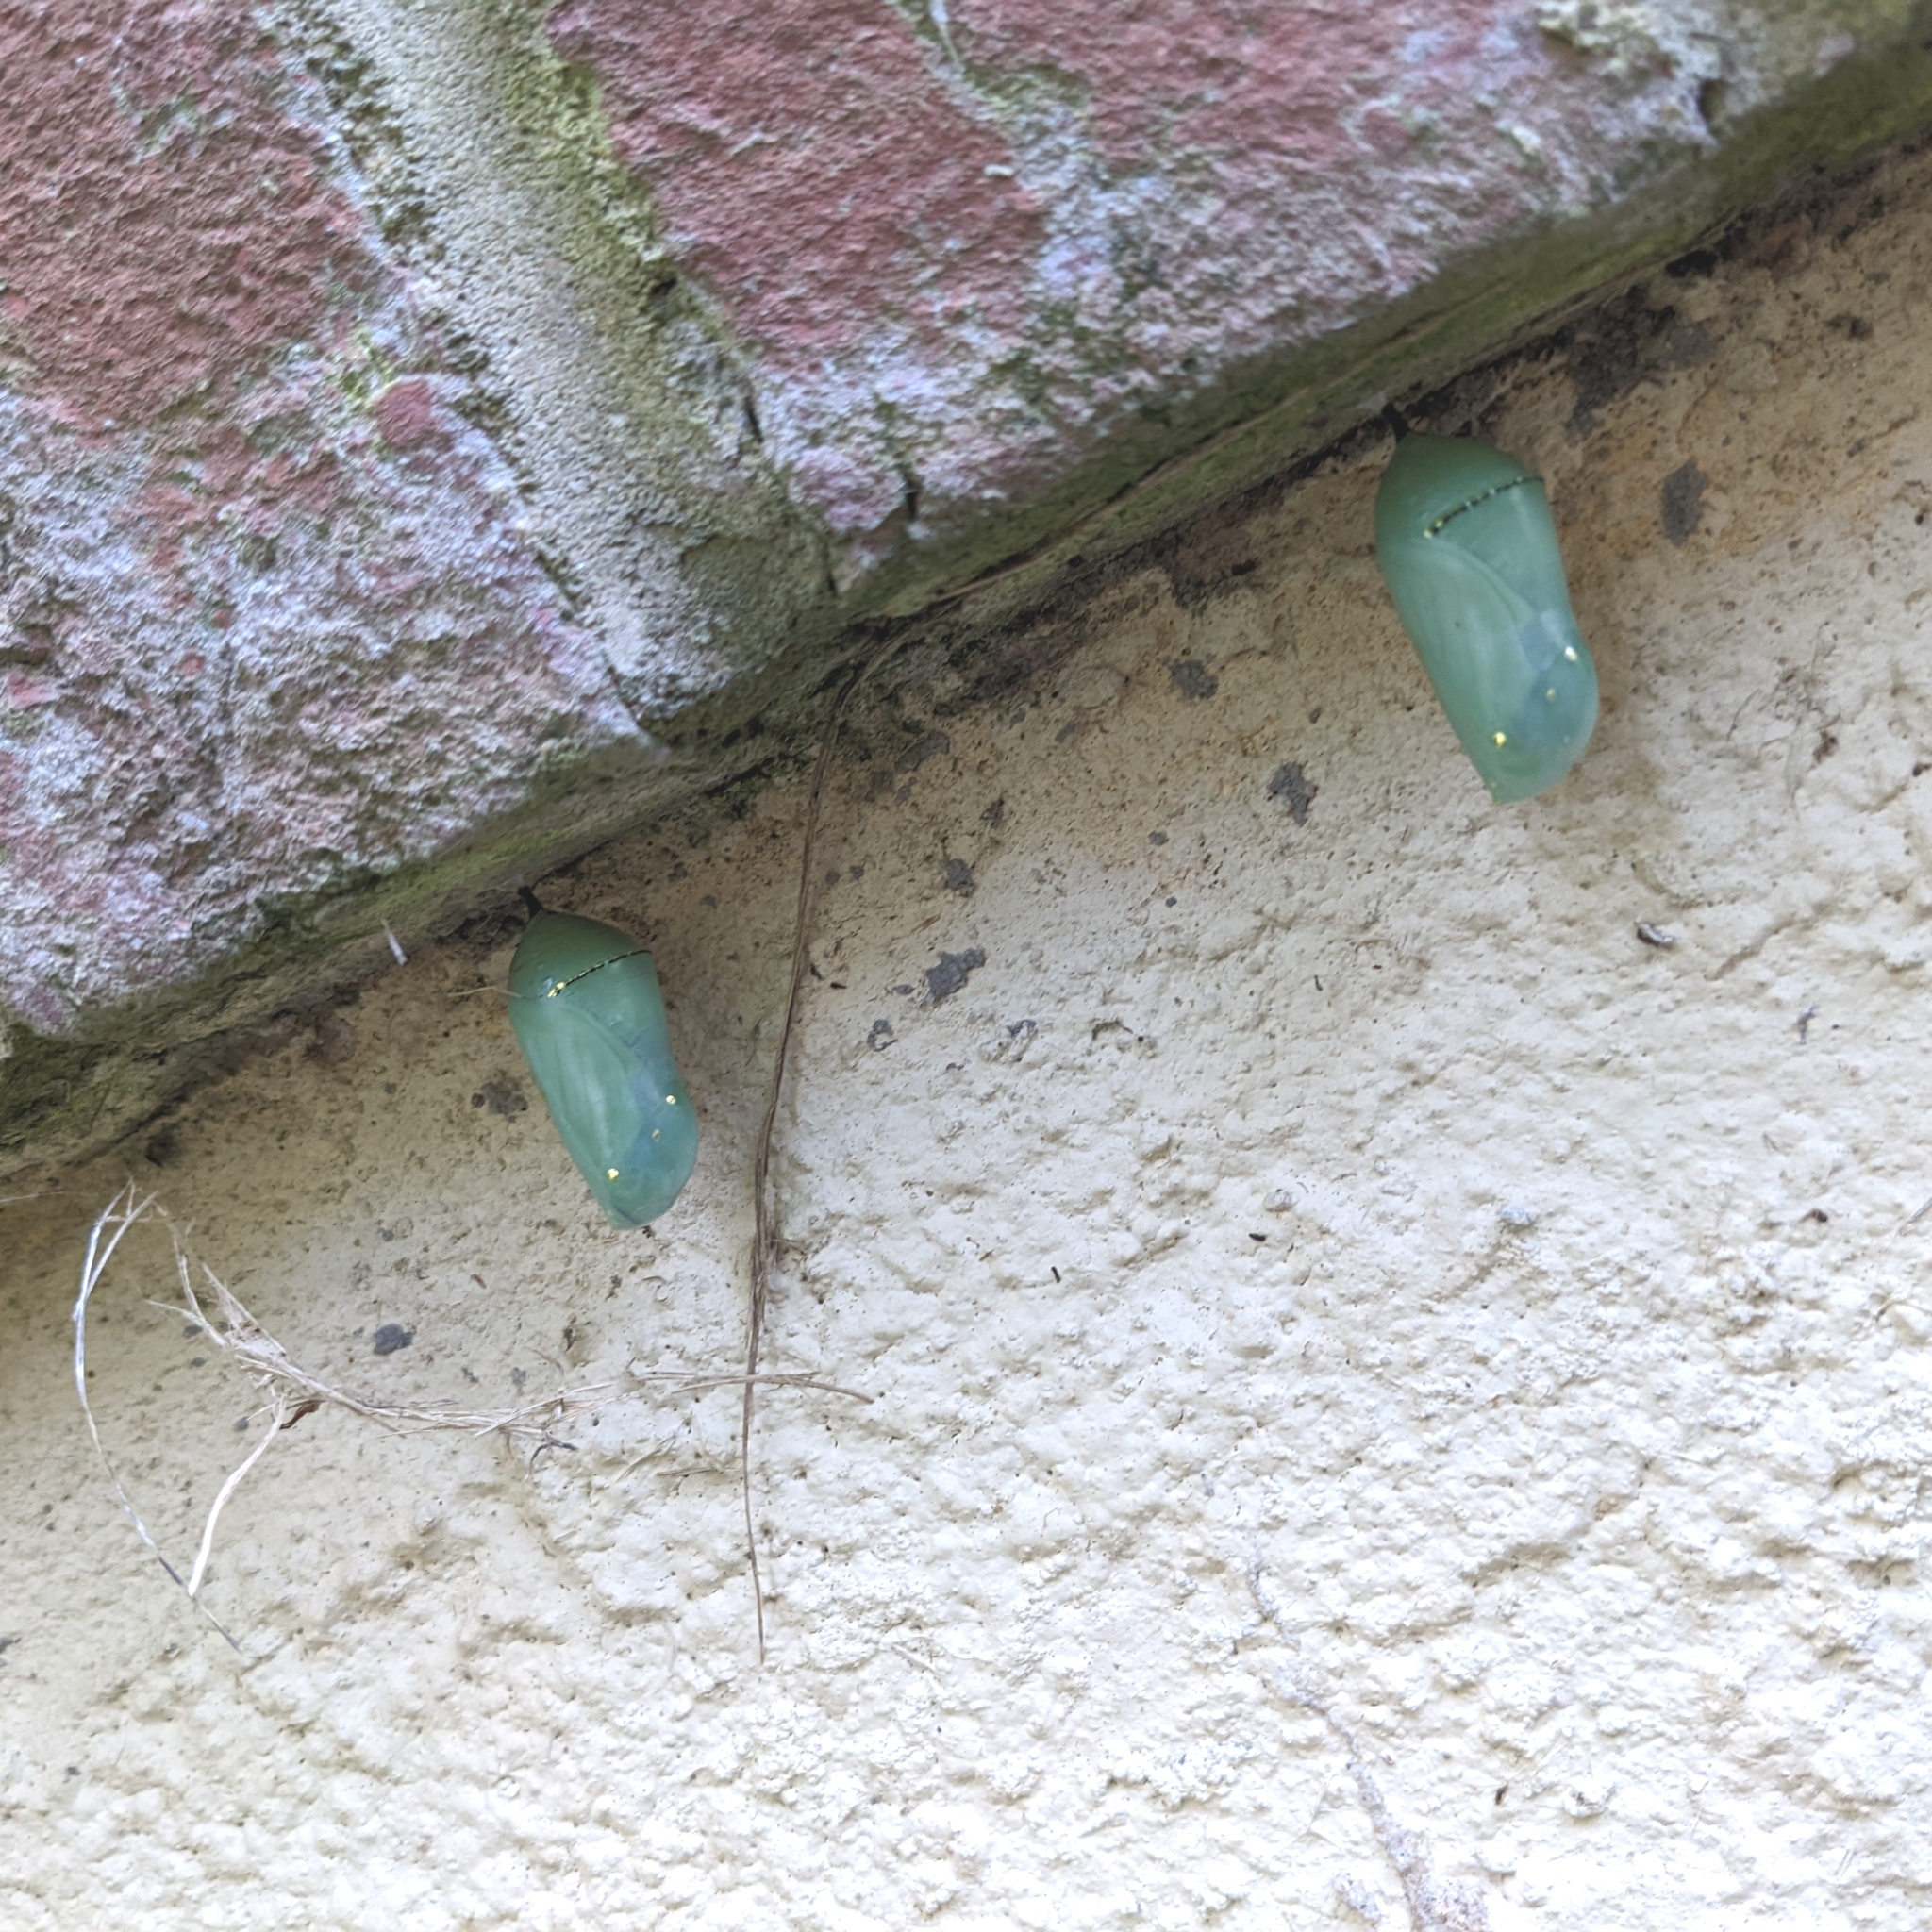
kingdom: Animalia
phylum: Arthropoda
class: Insecta
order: Lepidoptera
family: Nymphalidae
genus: Danaus
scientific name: Danaus plexippus
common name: Monarch
